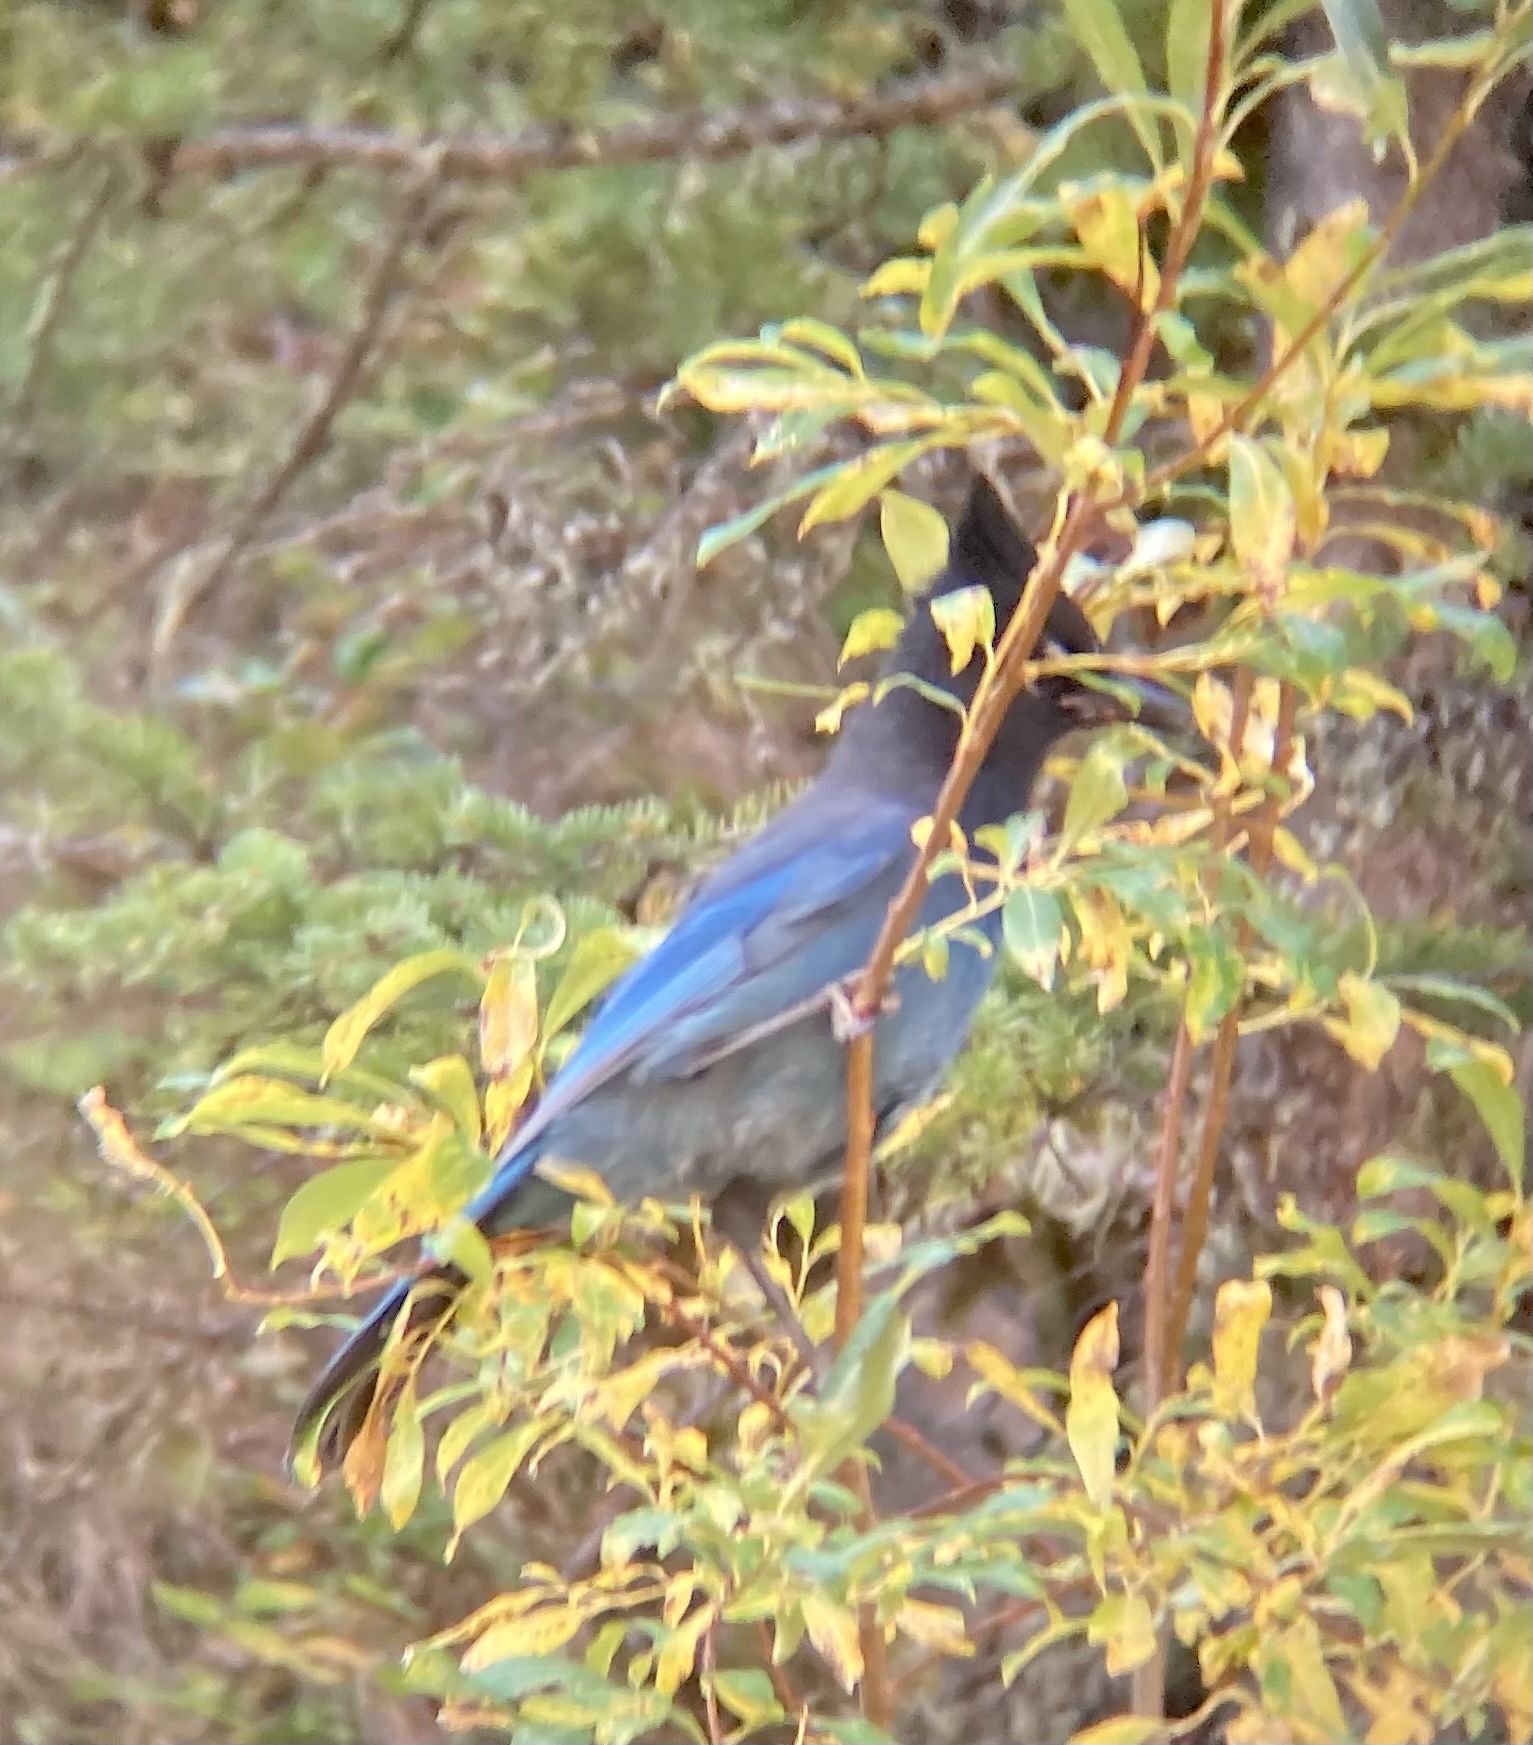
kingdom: Animalia
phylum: Chordata
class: Aves
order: Passeriformes
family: Corvidae
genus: Cyanocitta
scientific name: Cyanocitta stelleri
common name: Steller's jay
